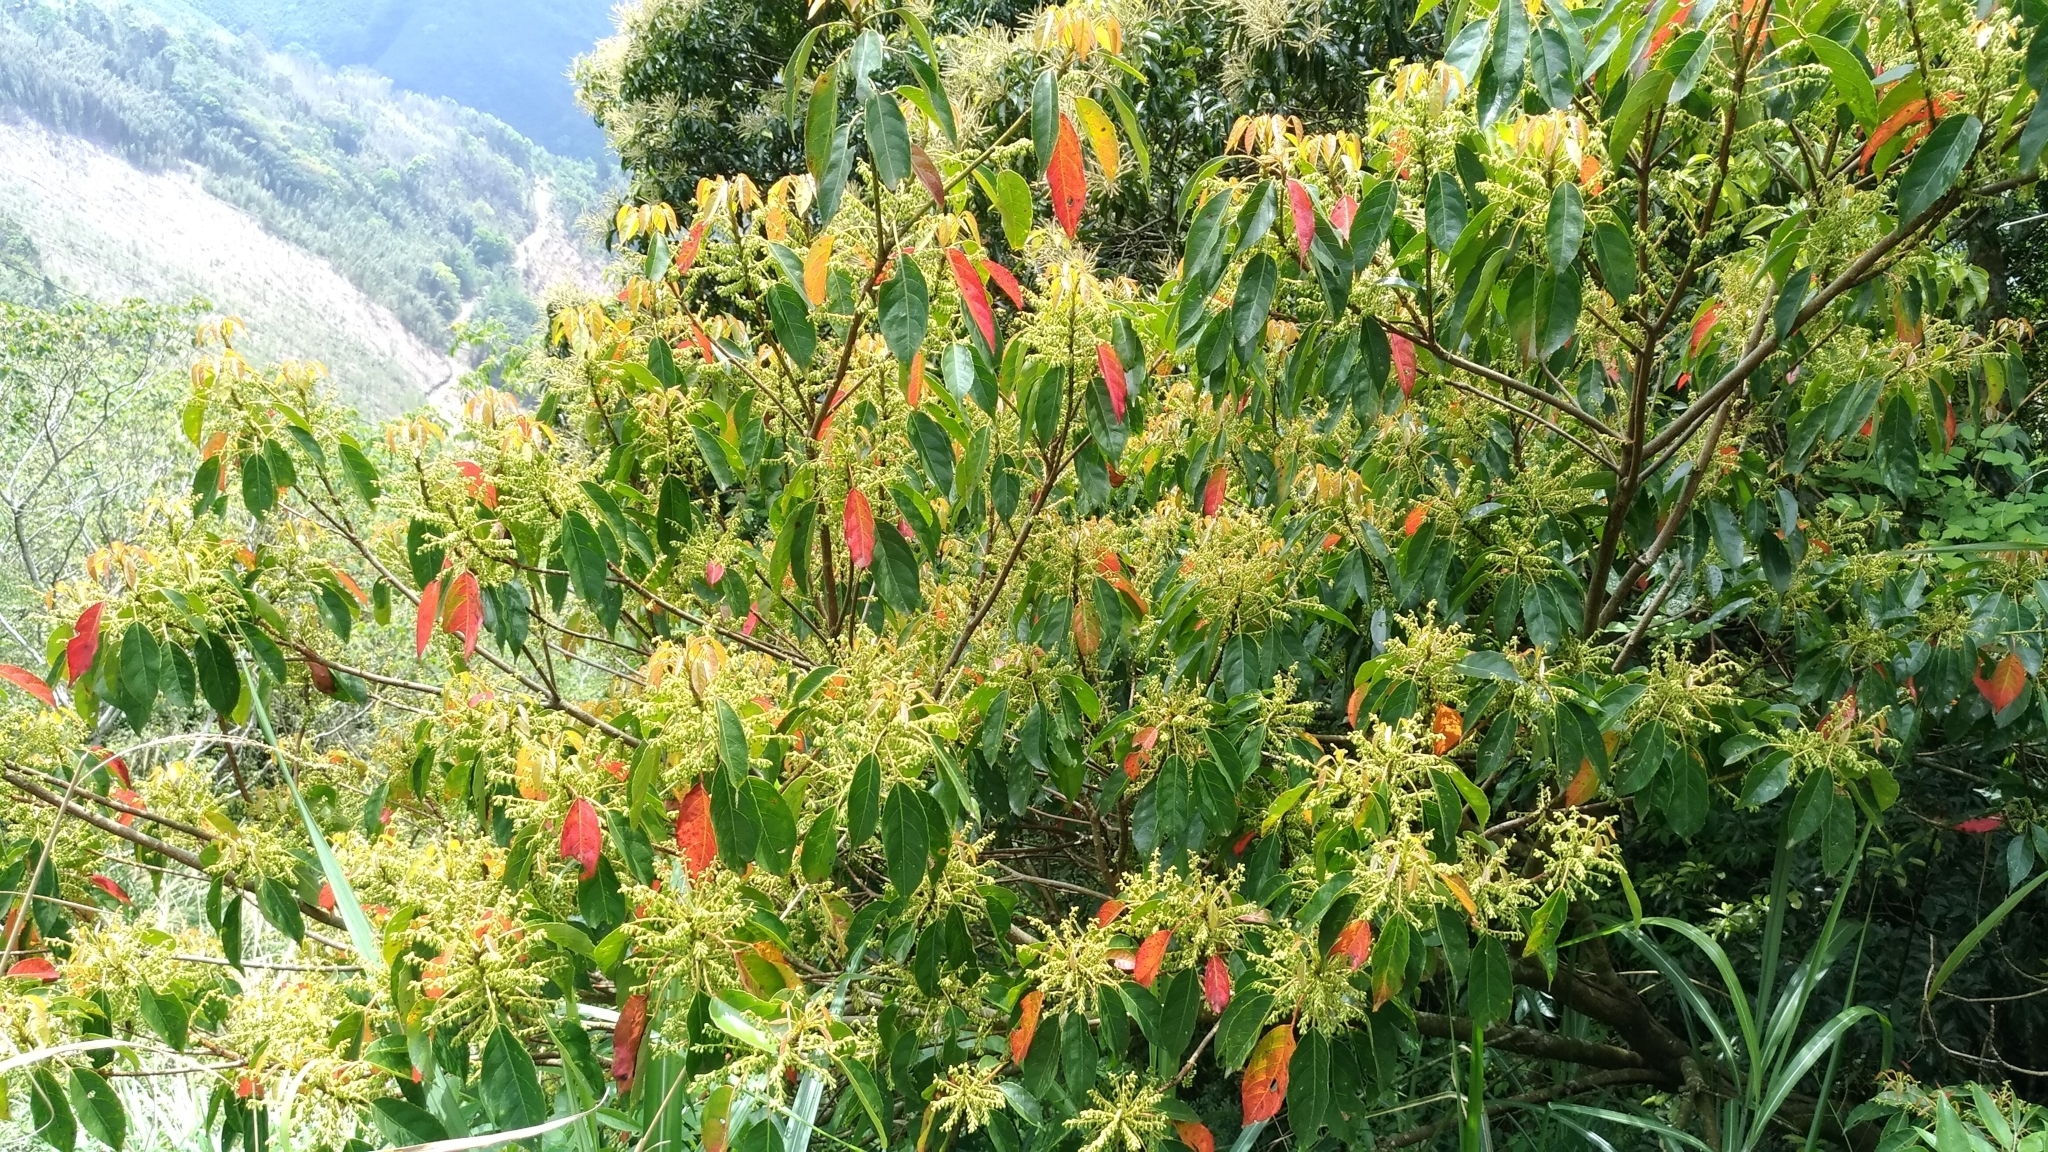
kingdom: Plantae
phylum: Tracheophyta
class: Magnoliopsida
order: Oxalidales
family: Elaeocarpaceae
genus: Elaeocarpus
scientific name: Elaeocarpus serratus
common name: Ceylon-olive
